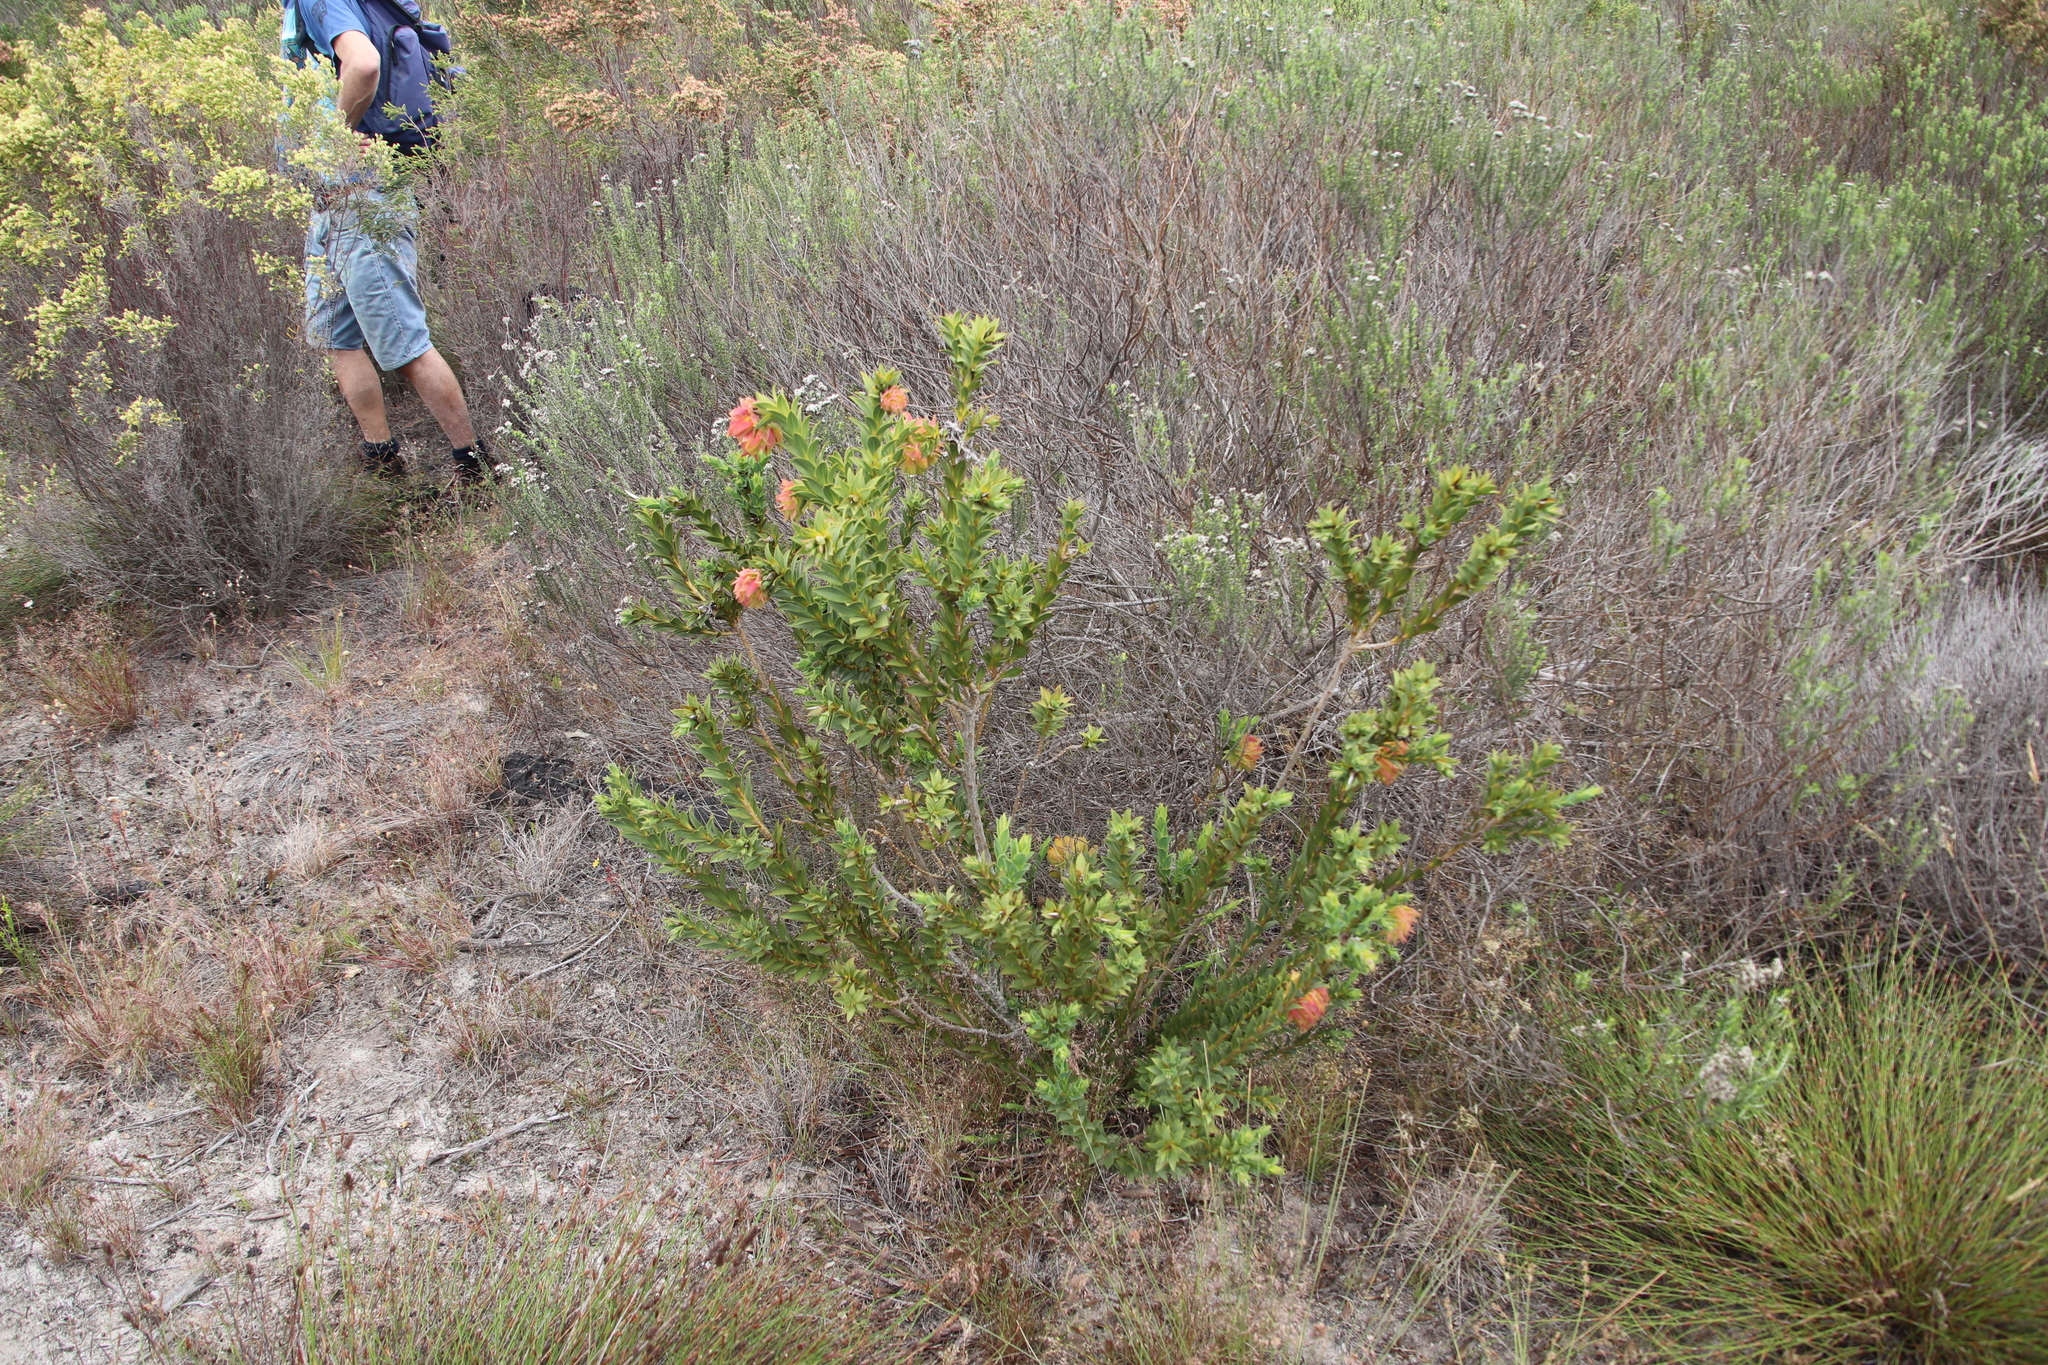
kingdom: Plantae
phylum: Tracheophyta
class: Magnoliopsida
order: Fabales
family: Fabaceae
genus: Liparia
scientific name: Liparia splendens
